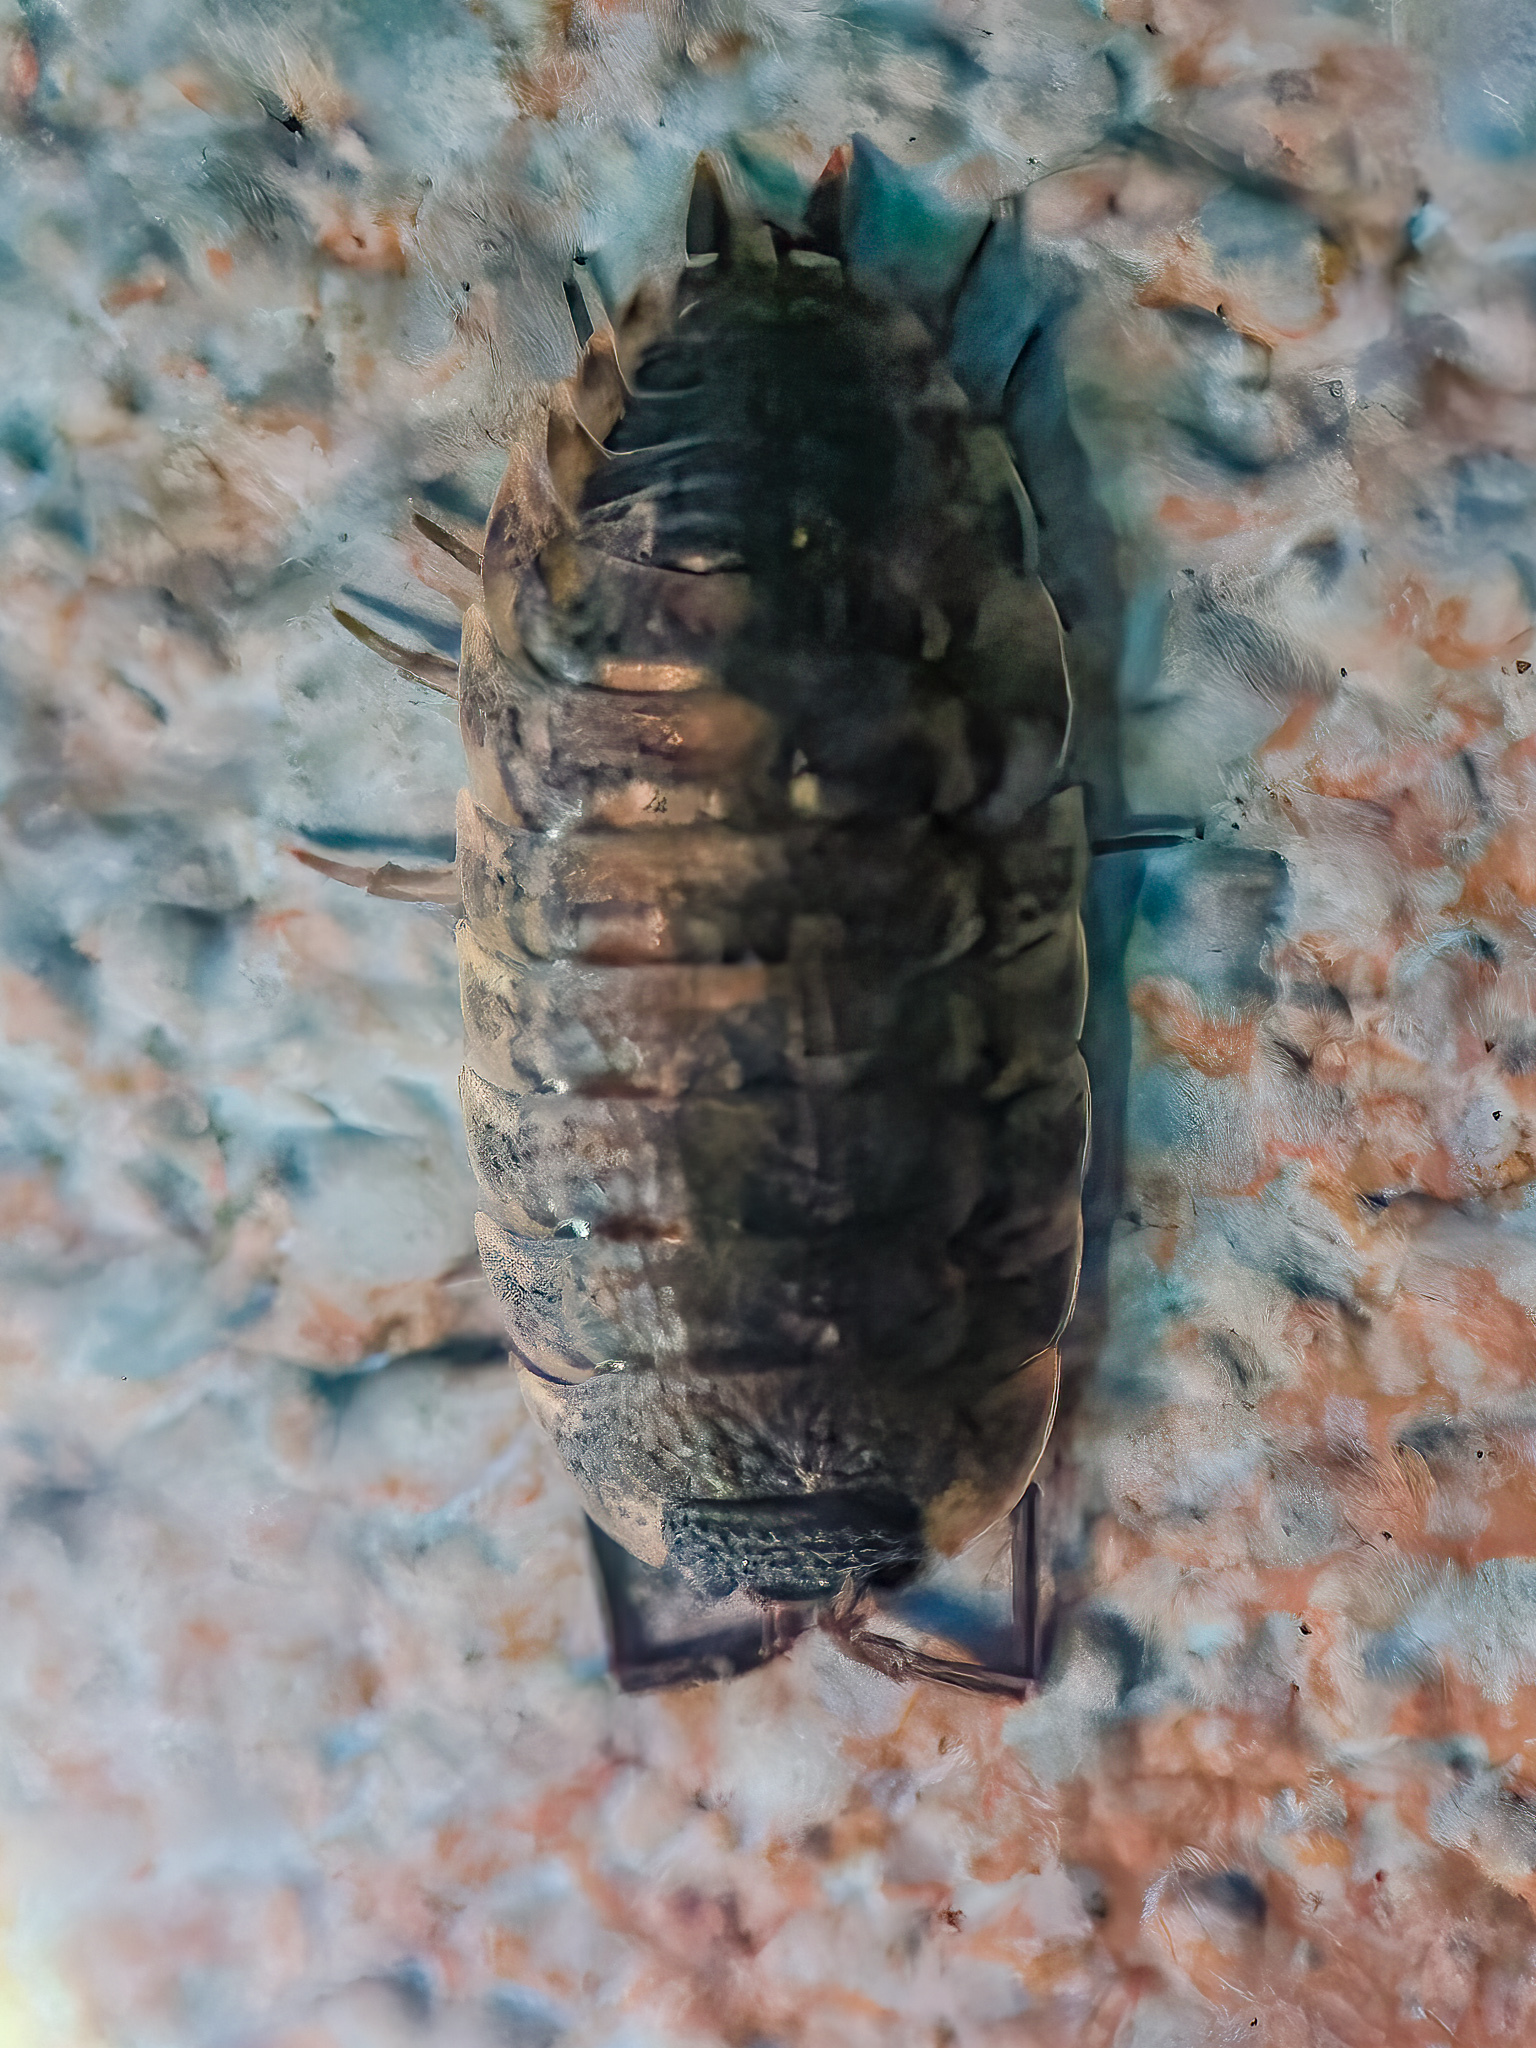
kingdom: Animalia
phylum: Arthropoda
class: Malacostraca
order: Isopoda
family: Porcellionidae
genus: Porcellio
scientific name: Porcellio spinicornis
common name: Painted woodlouse
